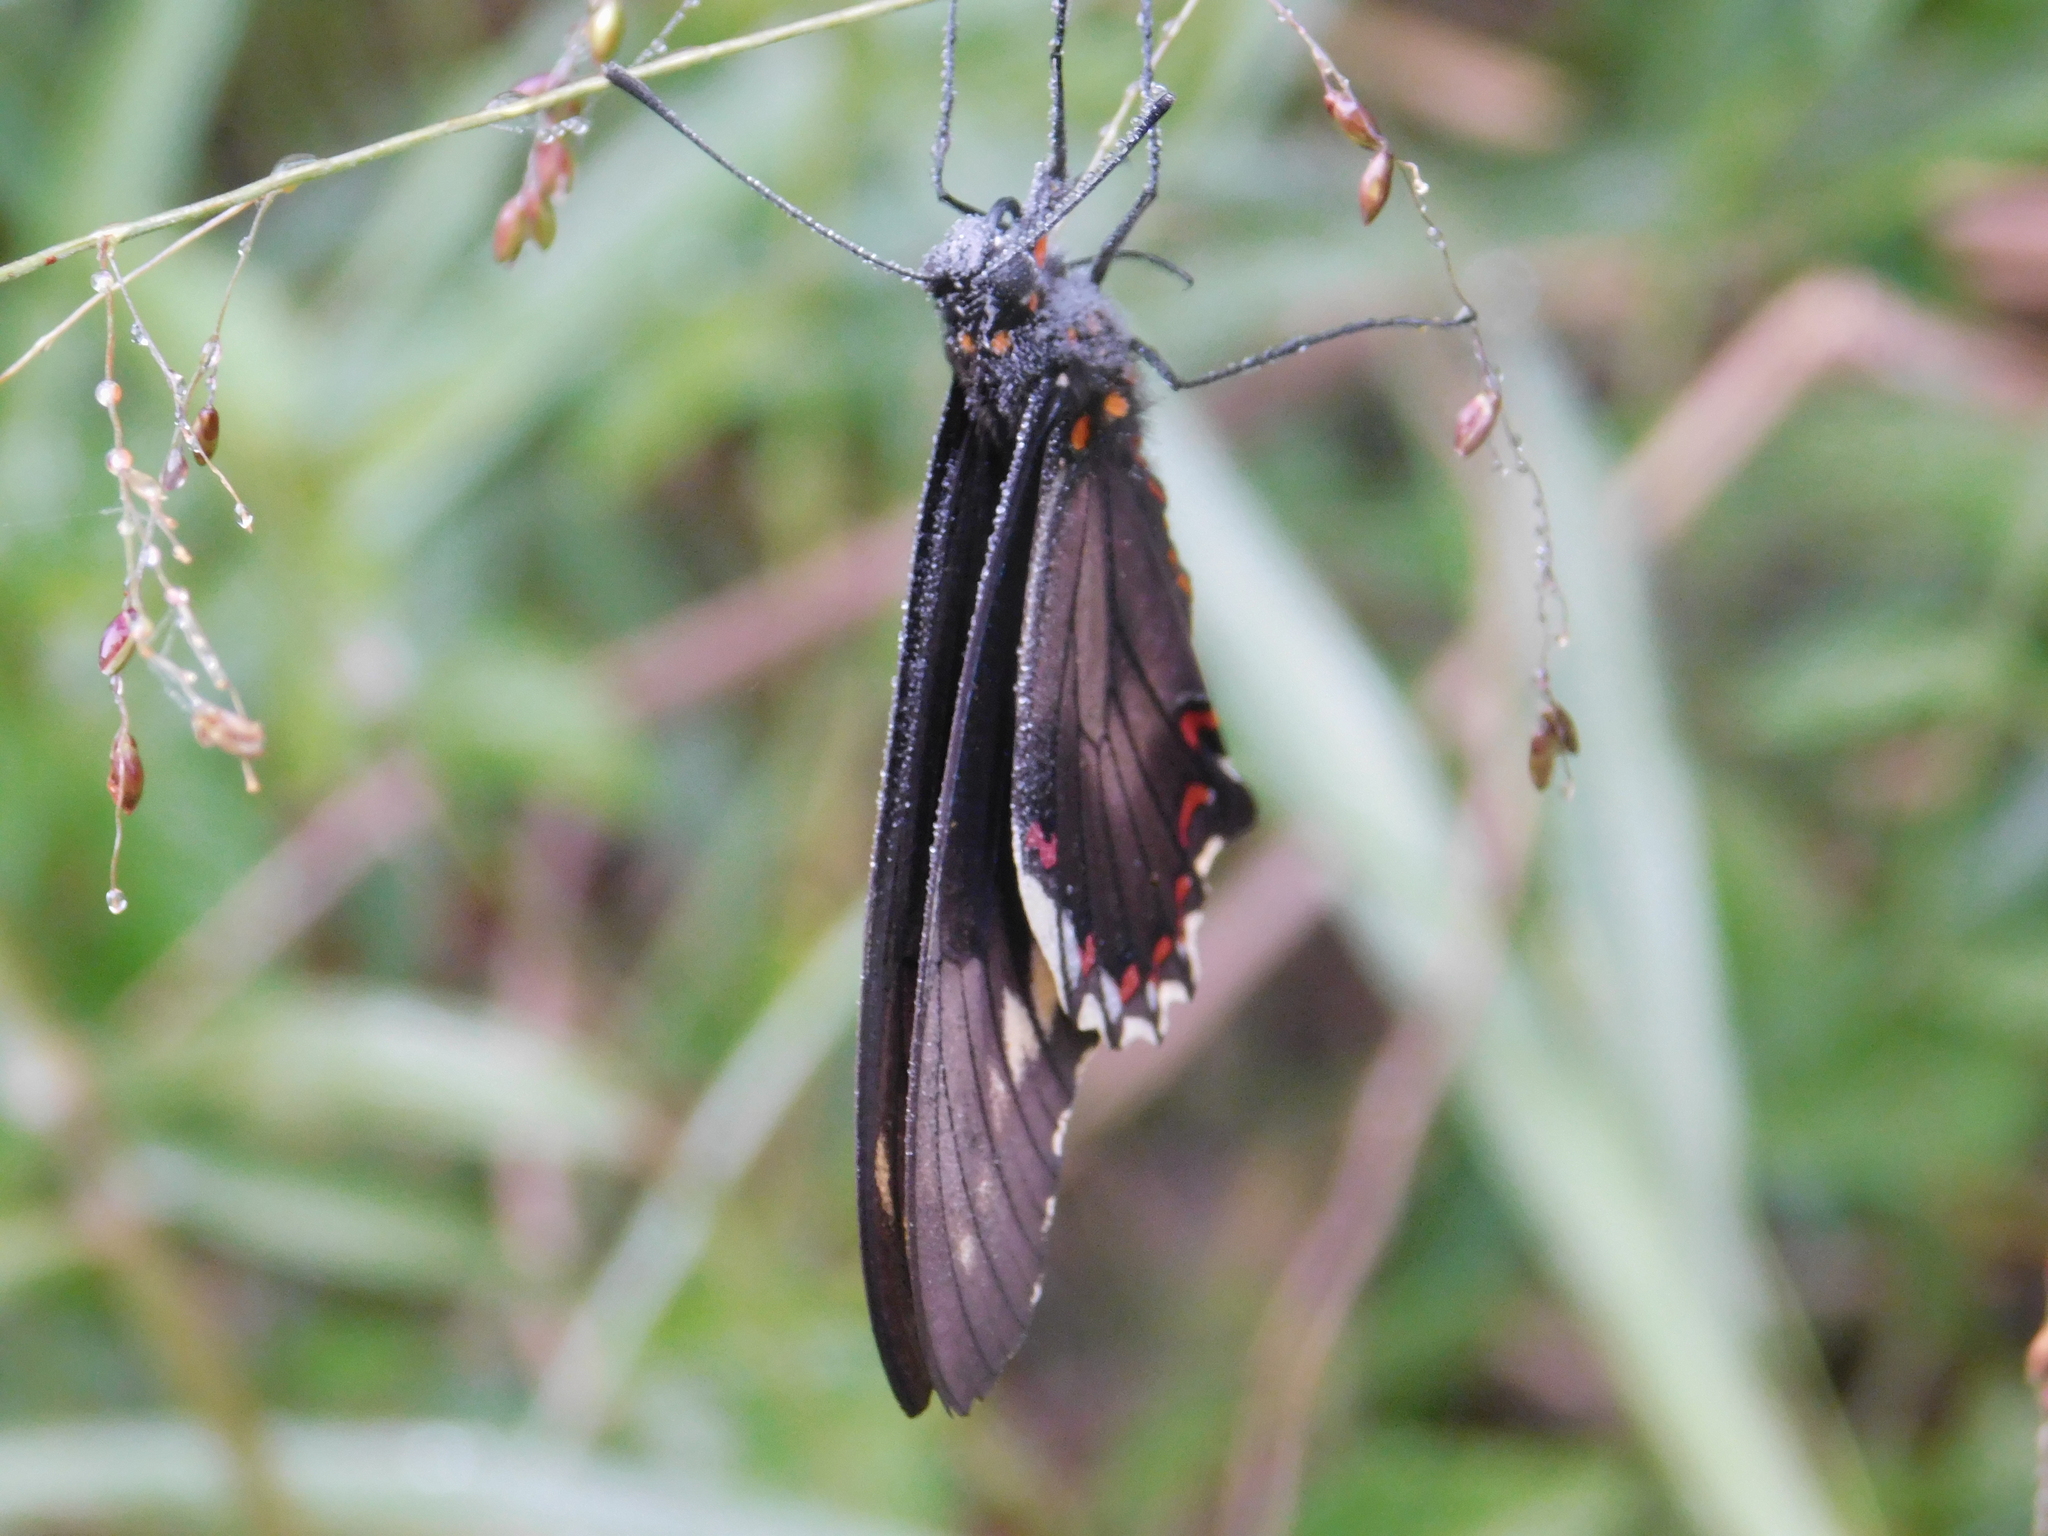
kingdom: Animalia
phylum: Arthropoda
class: Insecta
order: Lepidoptera
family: Papilionidae
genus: Battus
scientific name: Battus polydamas
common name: Polydamas swallowtail
